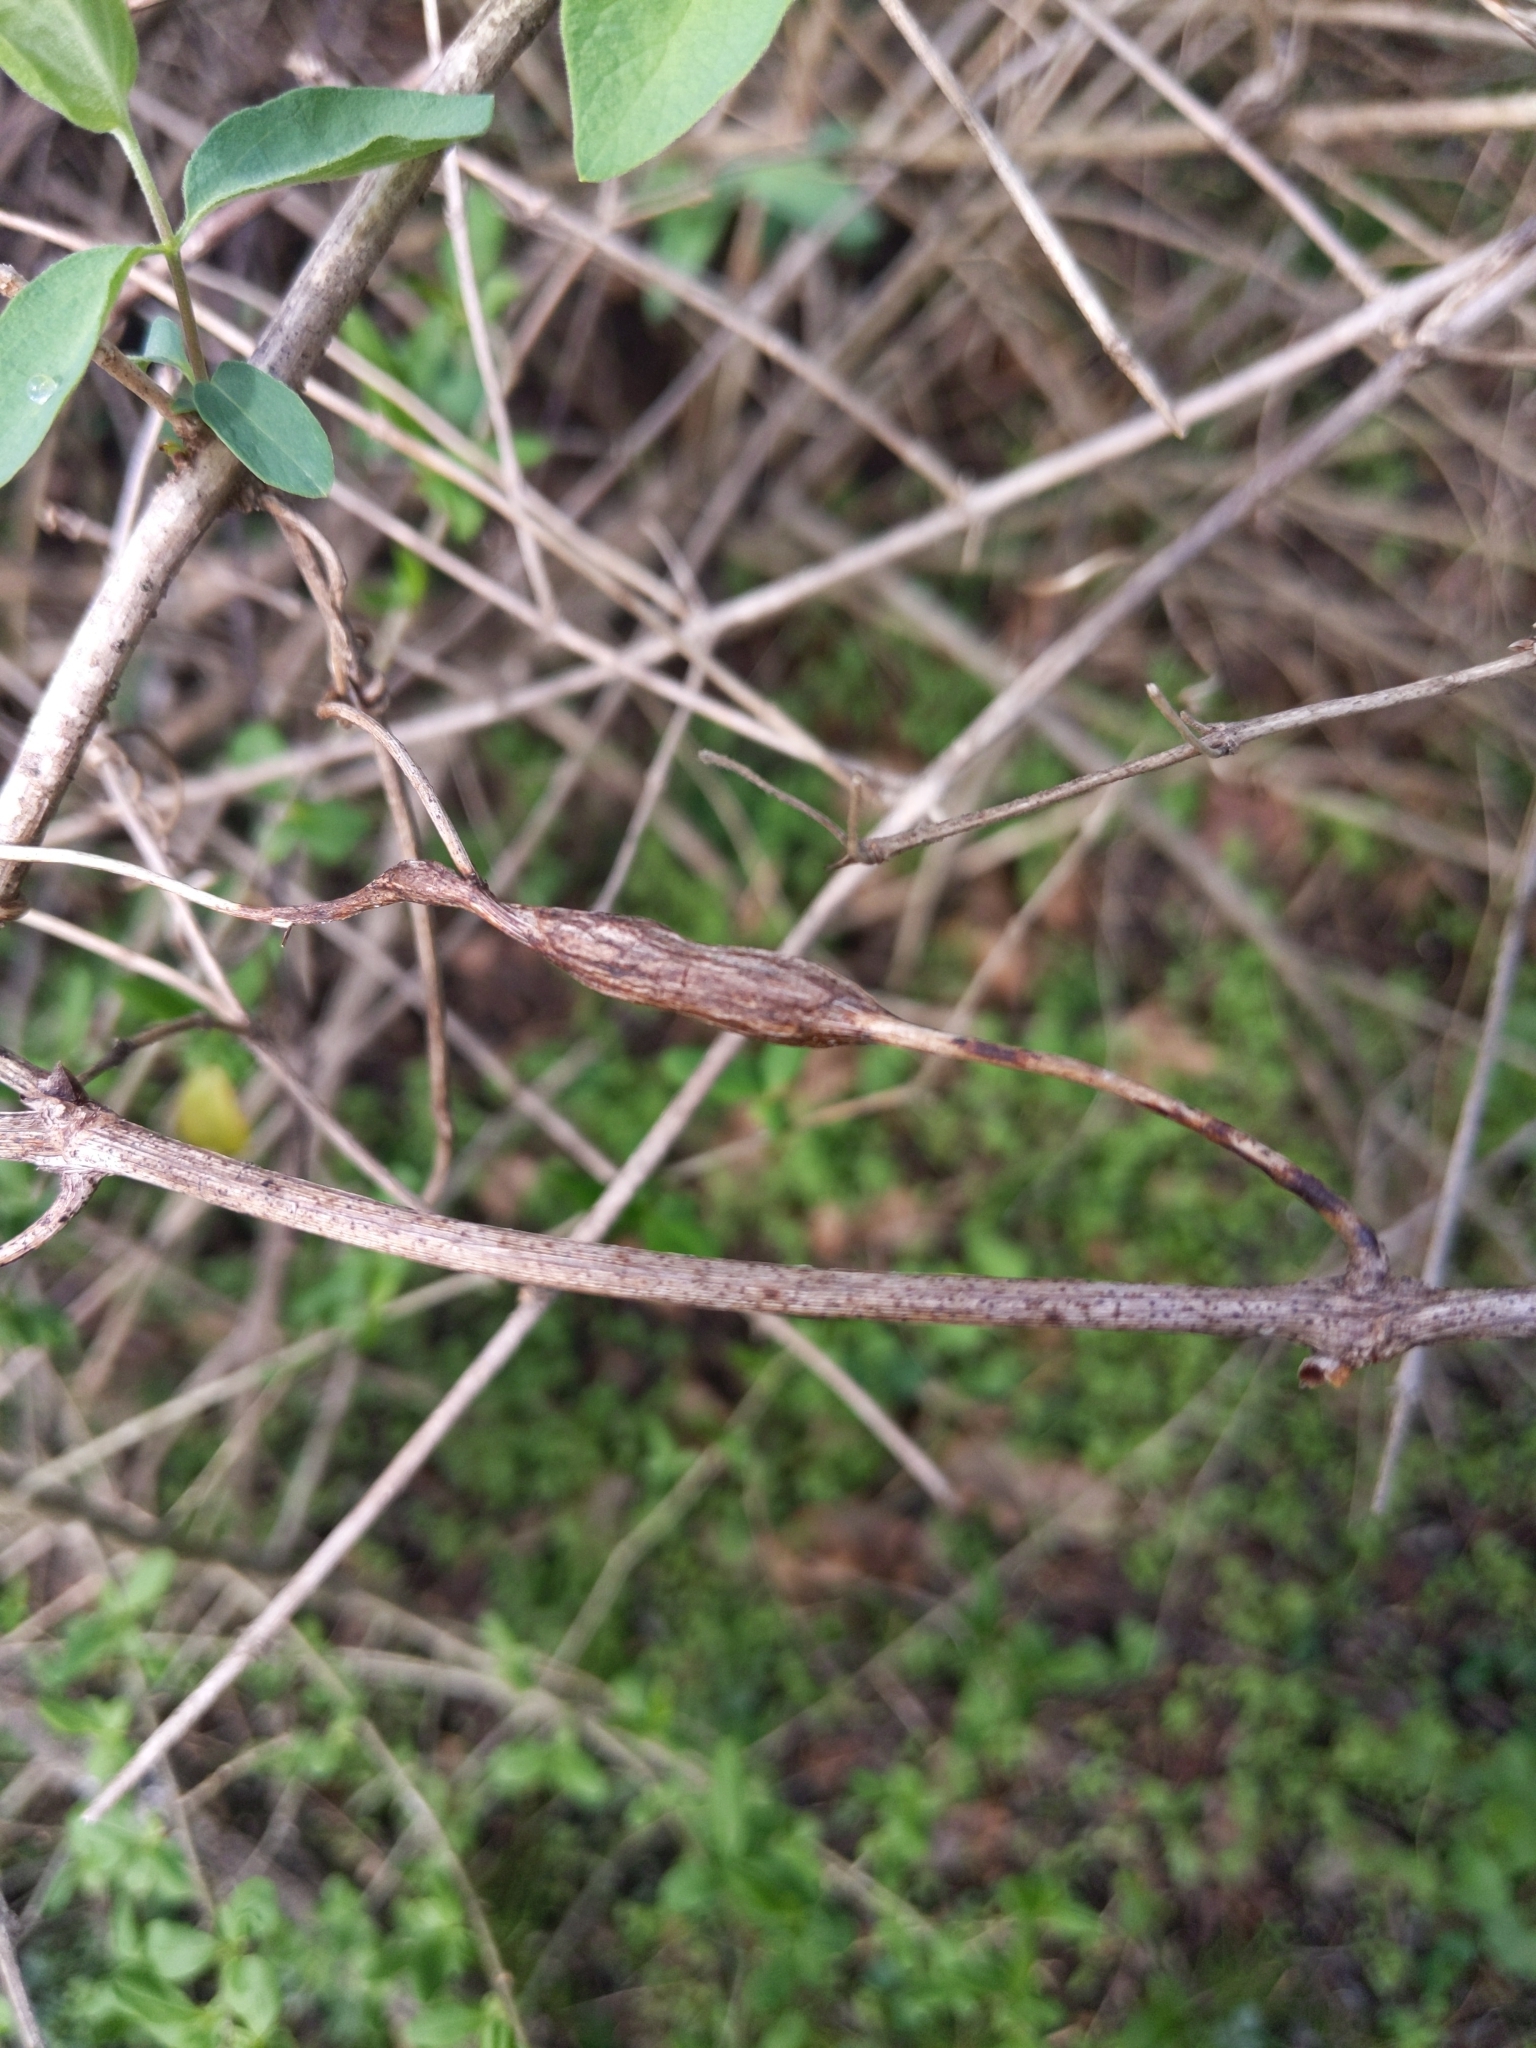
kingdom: Animalia
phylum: Arthropoda
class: Insecta
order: Diptera
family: Cecidomyiidae
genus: Neolasioptera
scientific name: Neolasioptera vitinea
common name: Grape leaf petiole gall
